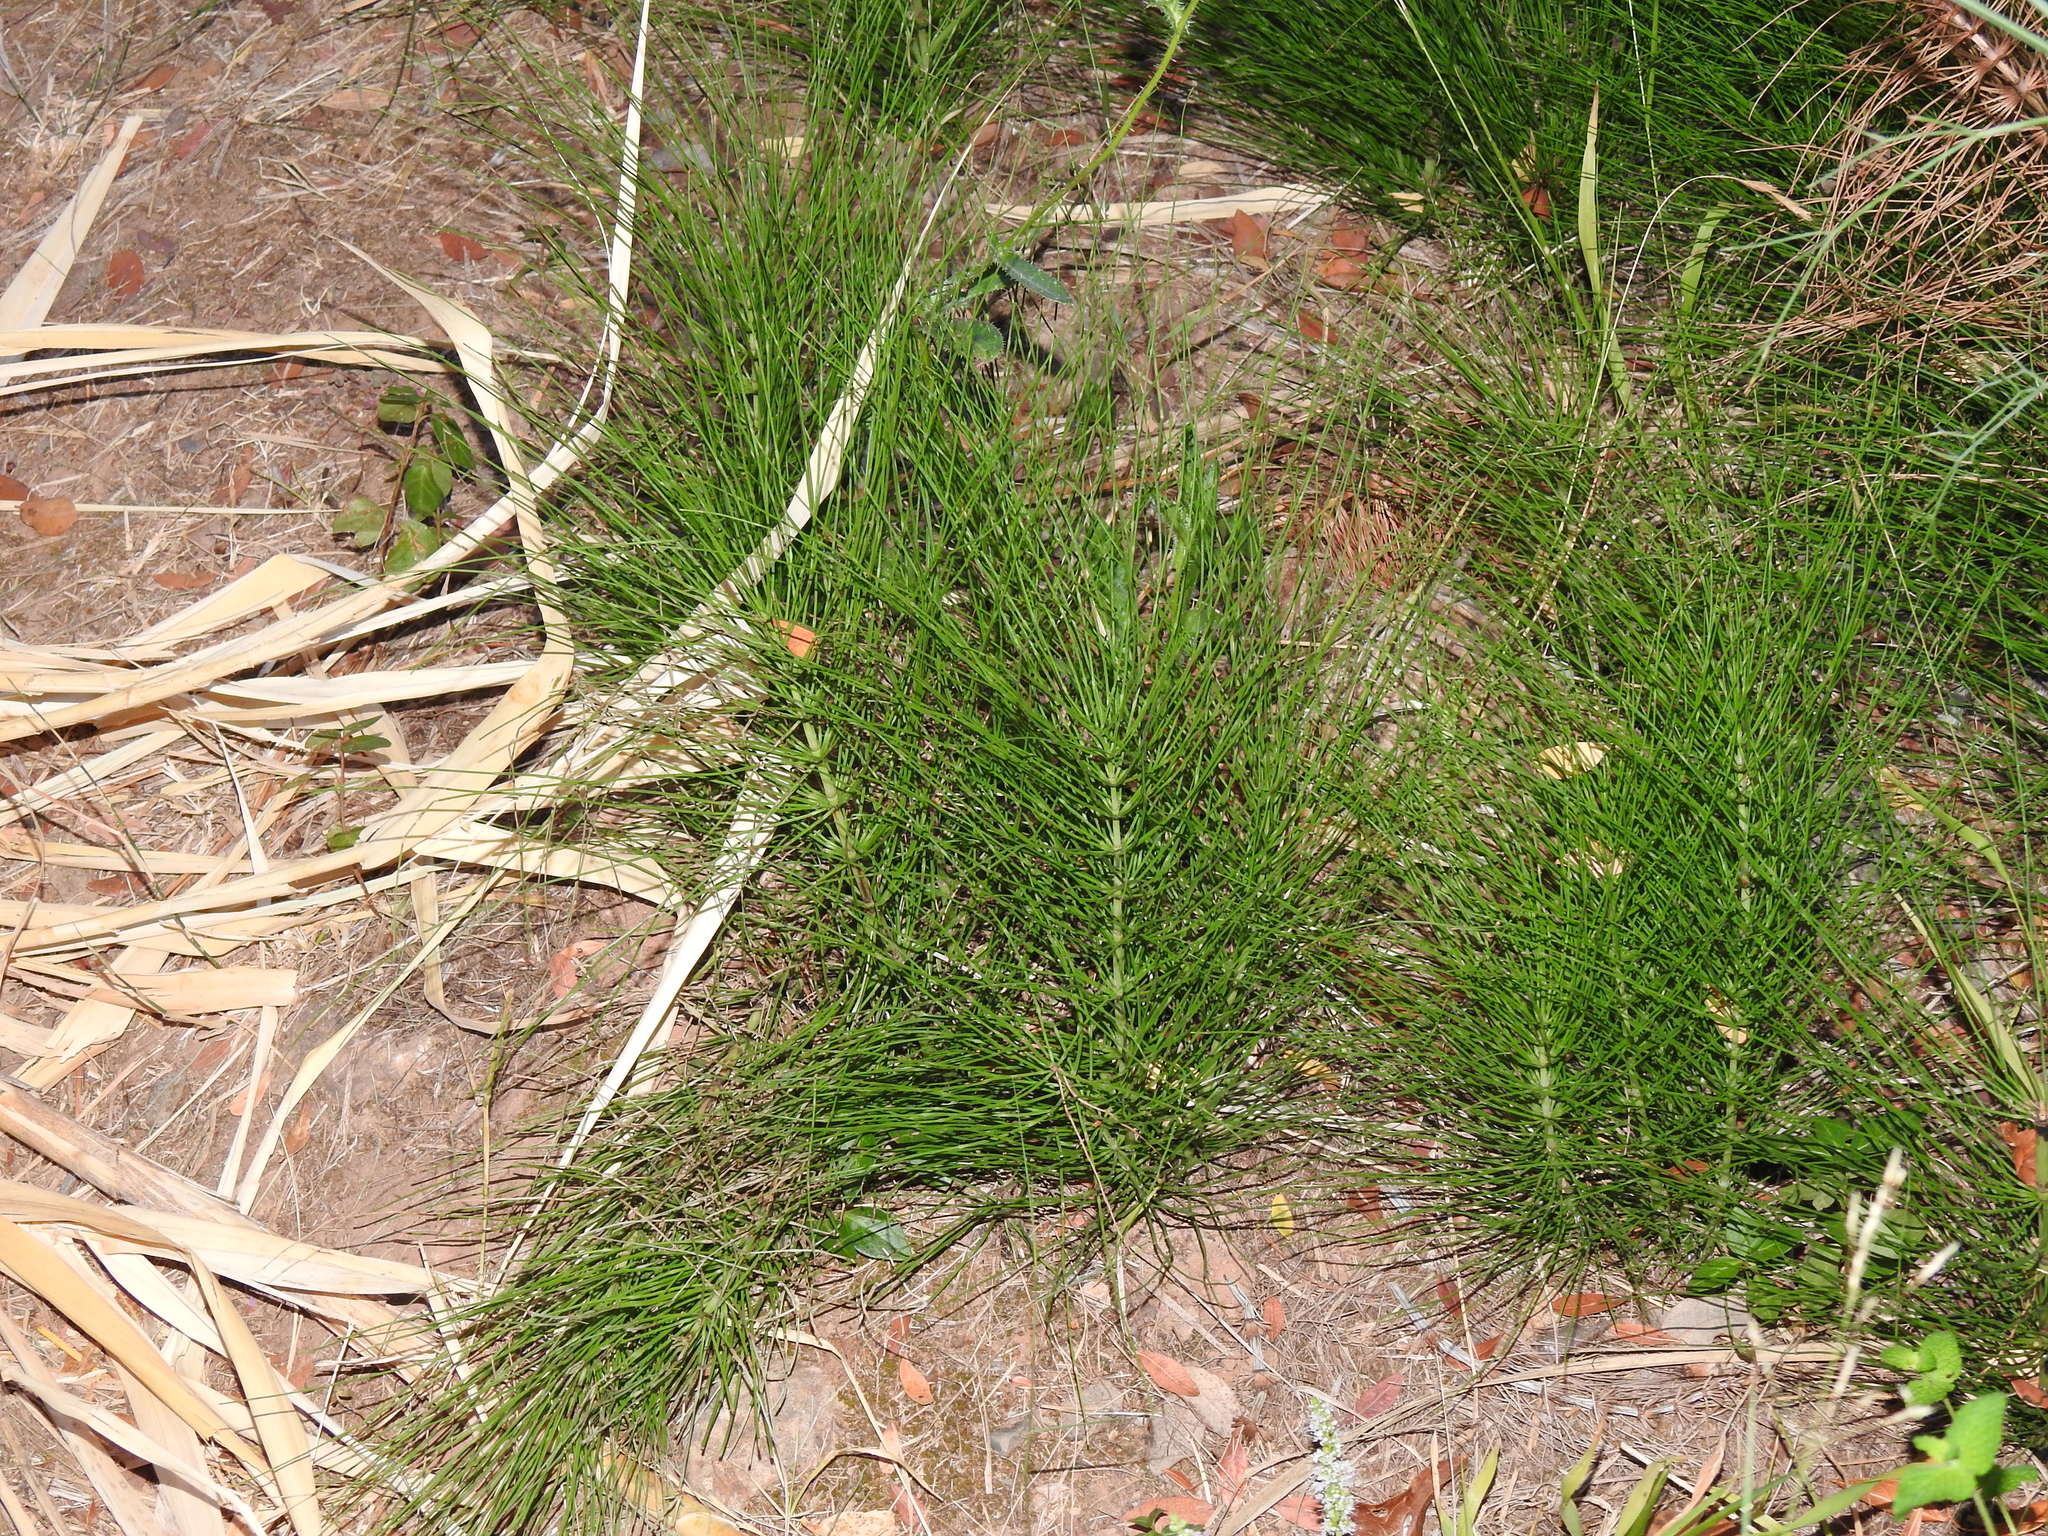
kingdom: Plantae
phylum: Tracheophyta
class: Polypodiopsida
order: Equisetales
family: Equisetaceae
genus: Equisetum
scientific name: Equisetum telmateia
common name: Great horsetail
